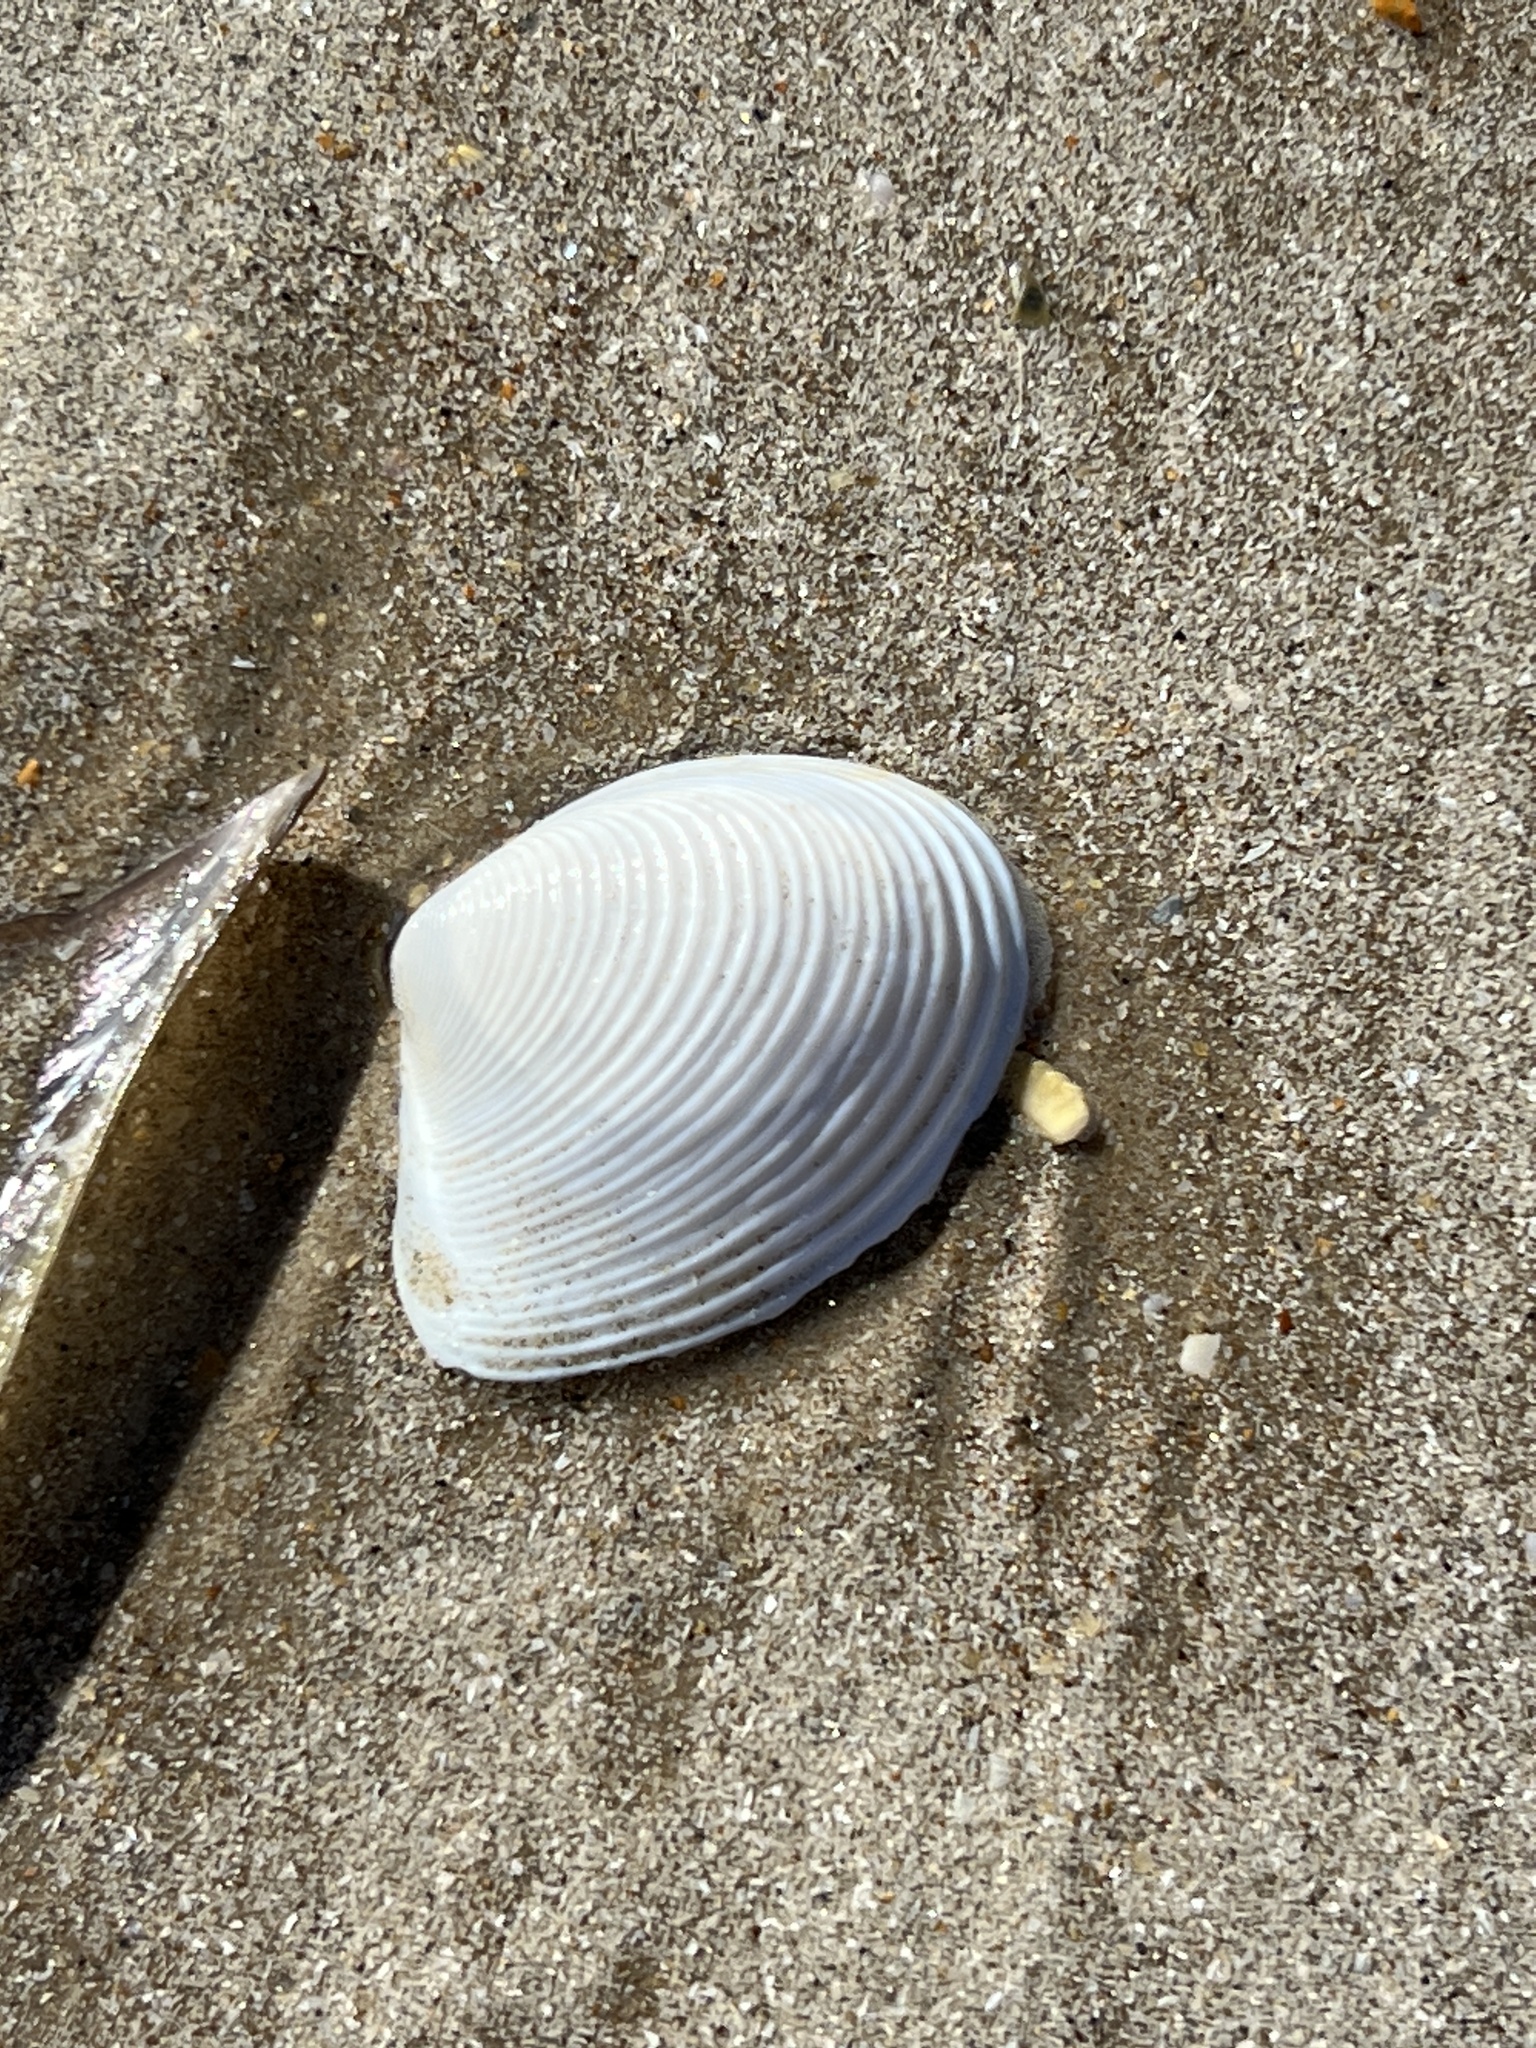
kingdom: Animalia
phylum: Mollusca
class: Bivalvia
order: Venerida
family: Anatinellidae
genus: Raeta
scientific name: Raeta plicatella
